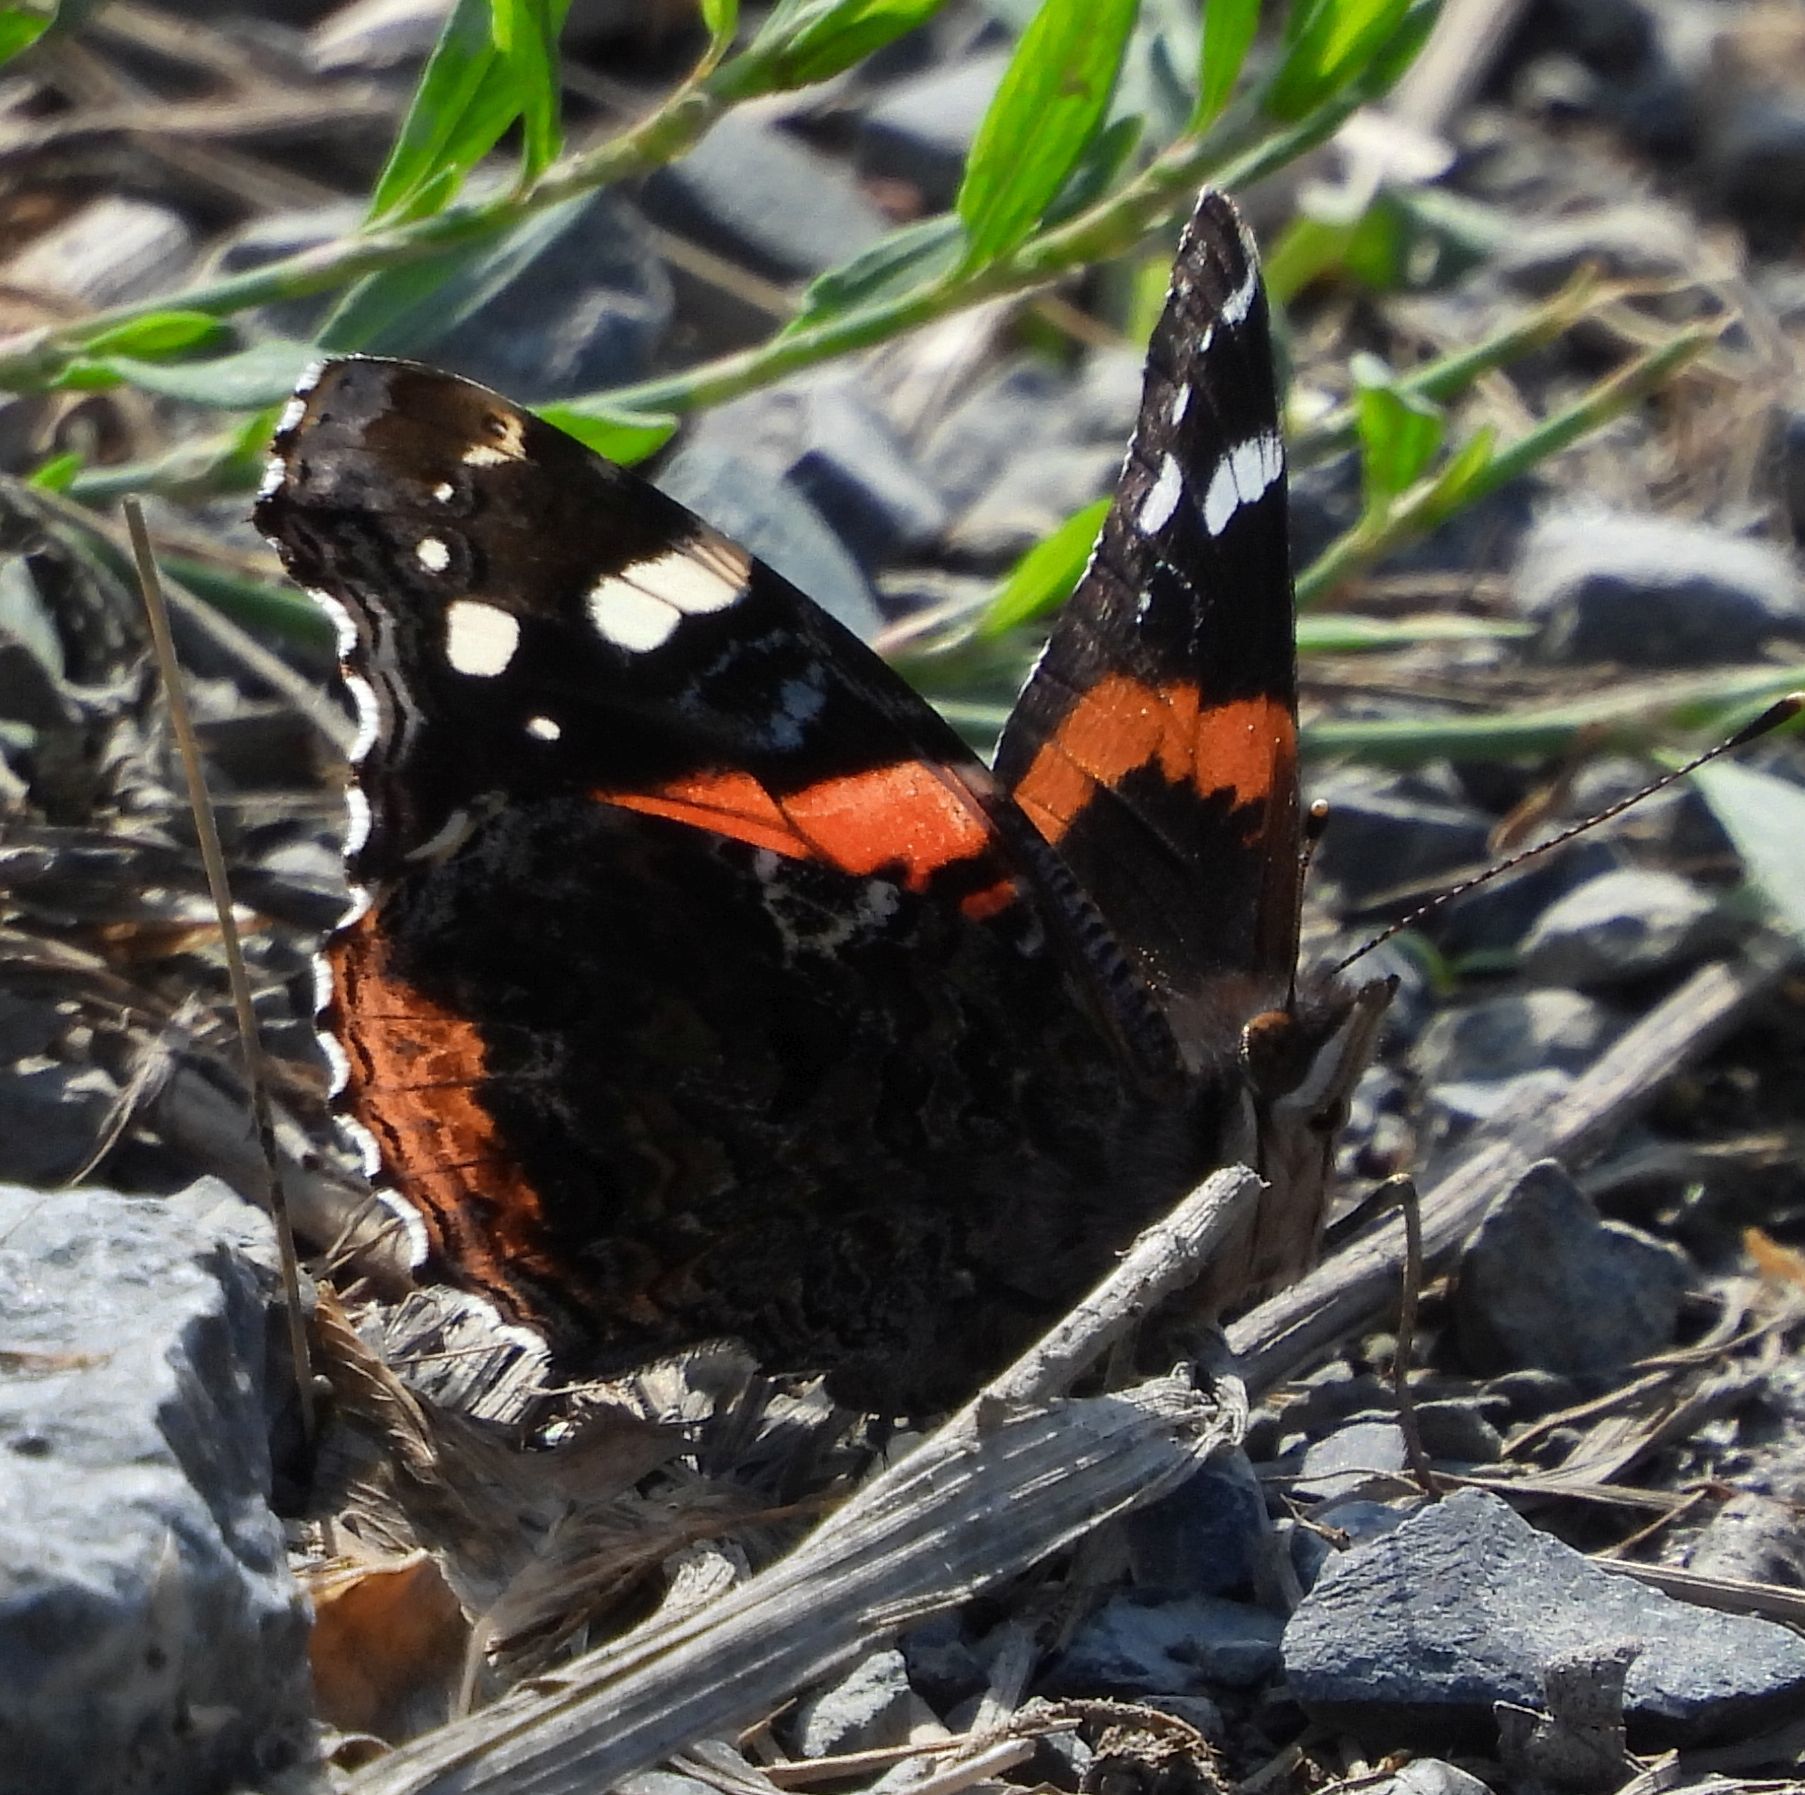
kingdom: Animalia
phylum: Arthropoda
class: Insecta
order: Lepidoptera
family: Nymphalidae
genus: Vanessa
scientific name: Vanessa atalanta
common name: Red admiral
